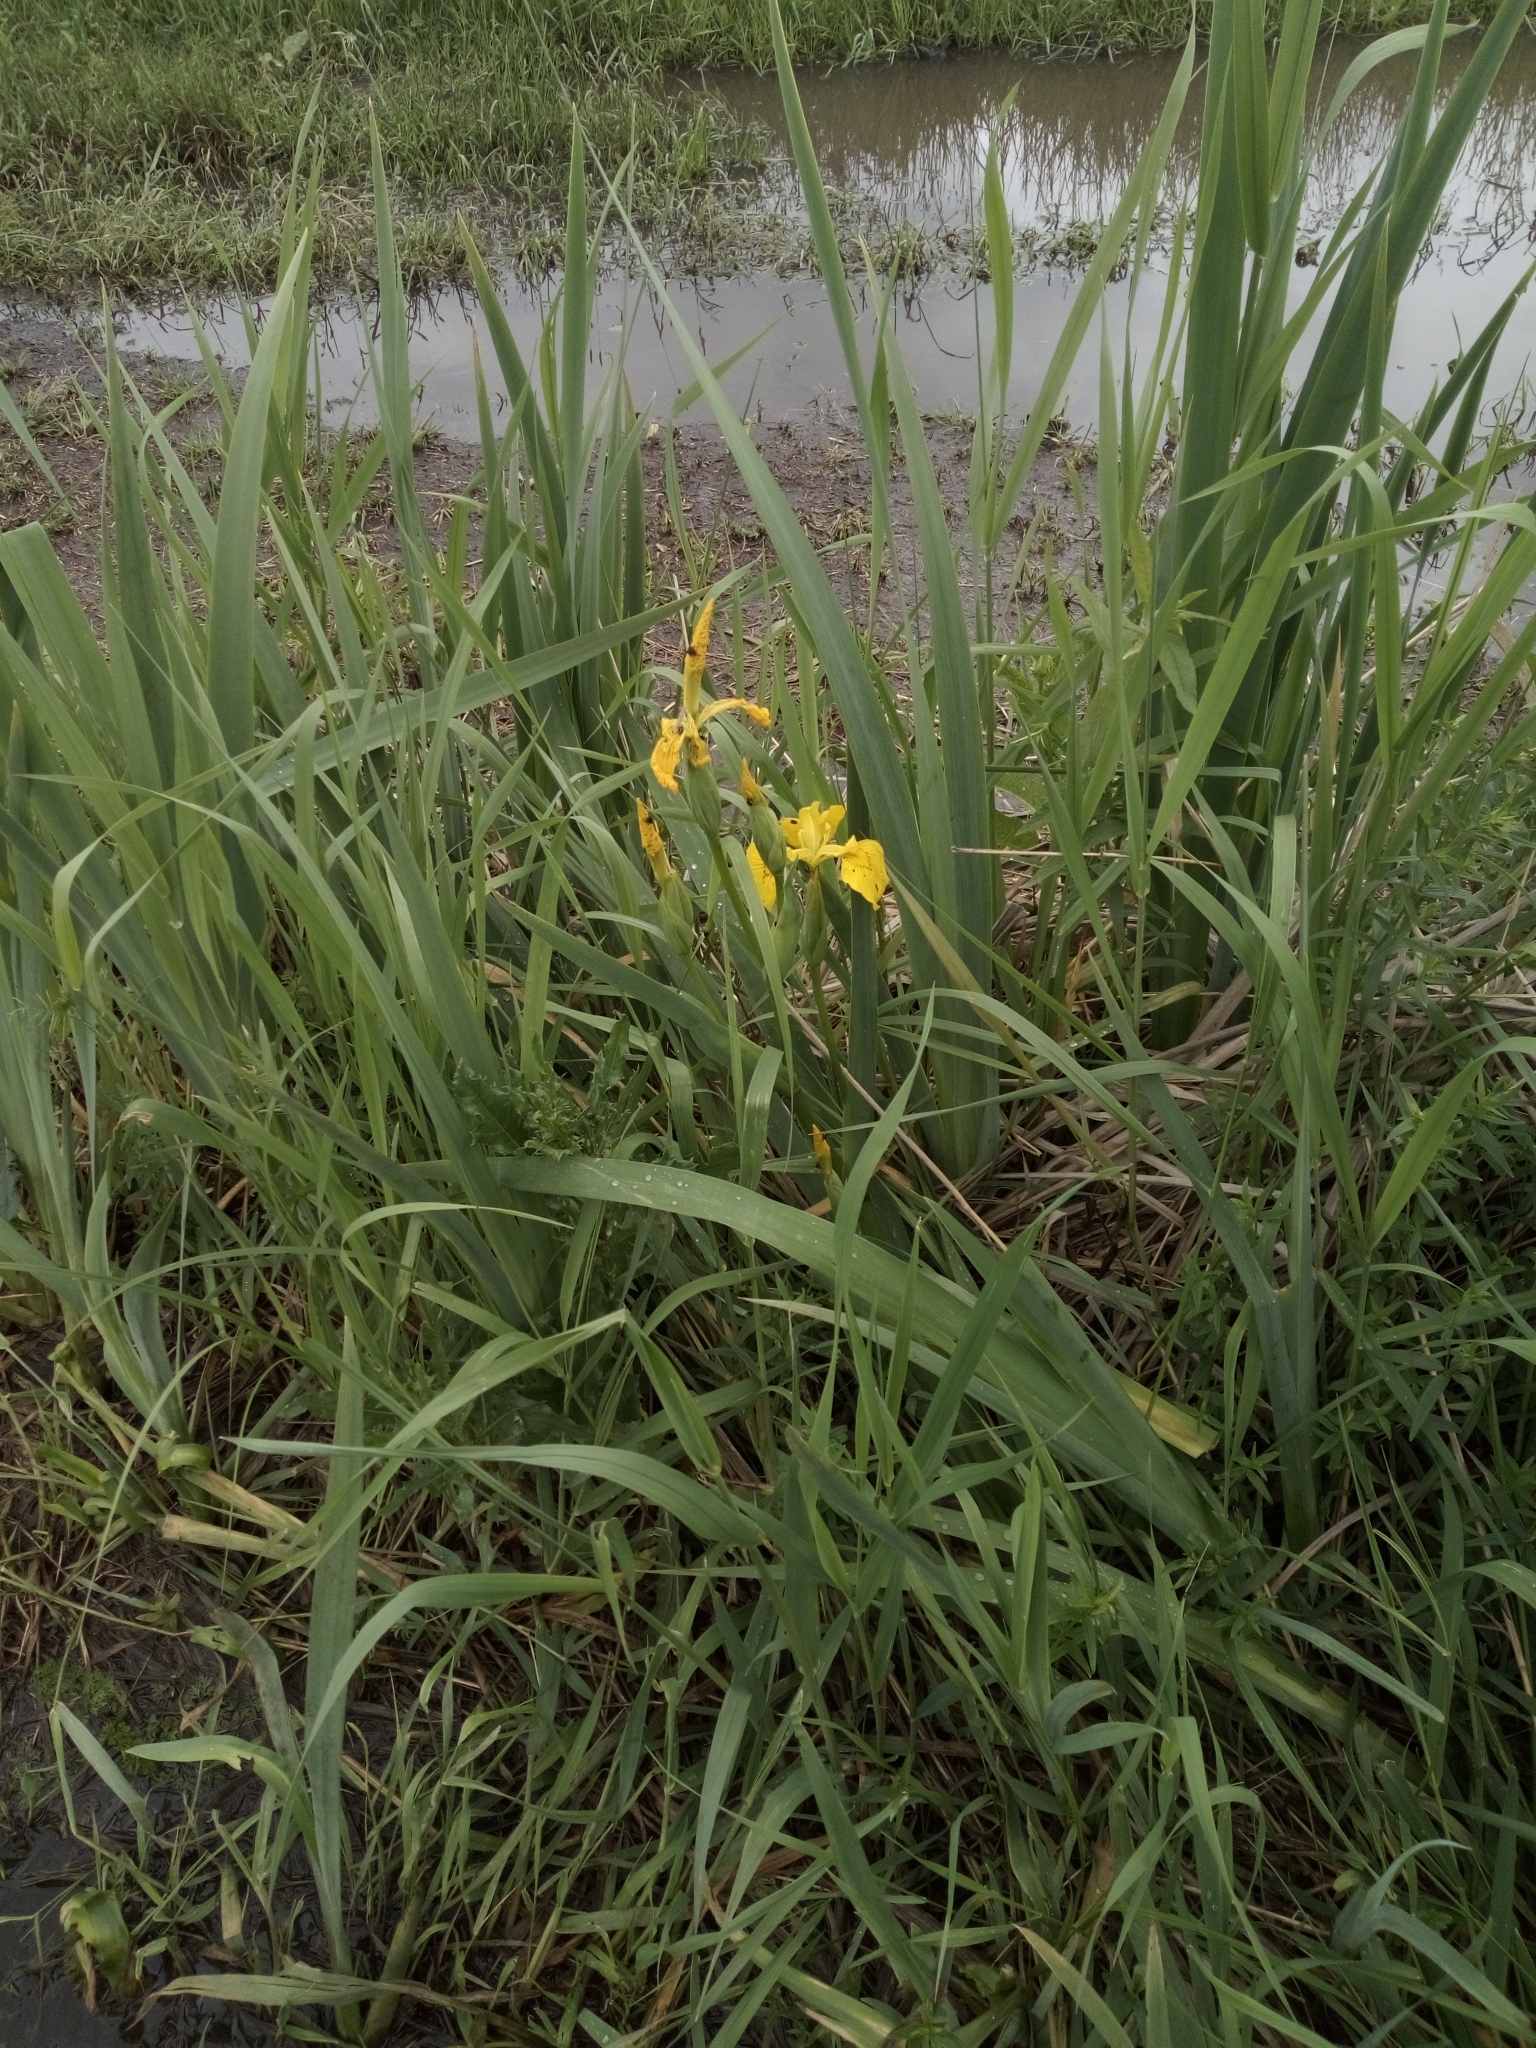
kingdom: Plantae
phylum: Tracheophyta
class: Liliopsida
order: Asparagales
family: Iridaceae
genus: Iris
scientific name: Iris pseudacorus
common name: Yellow flag
